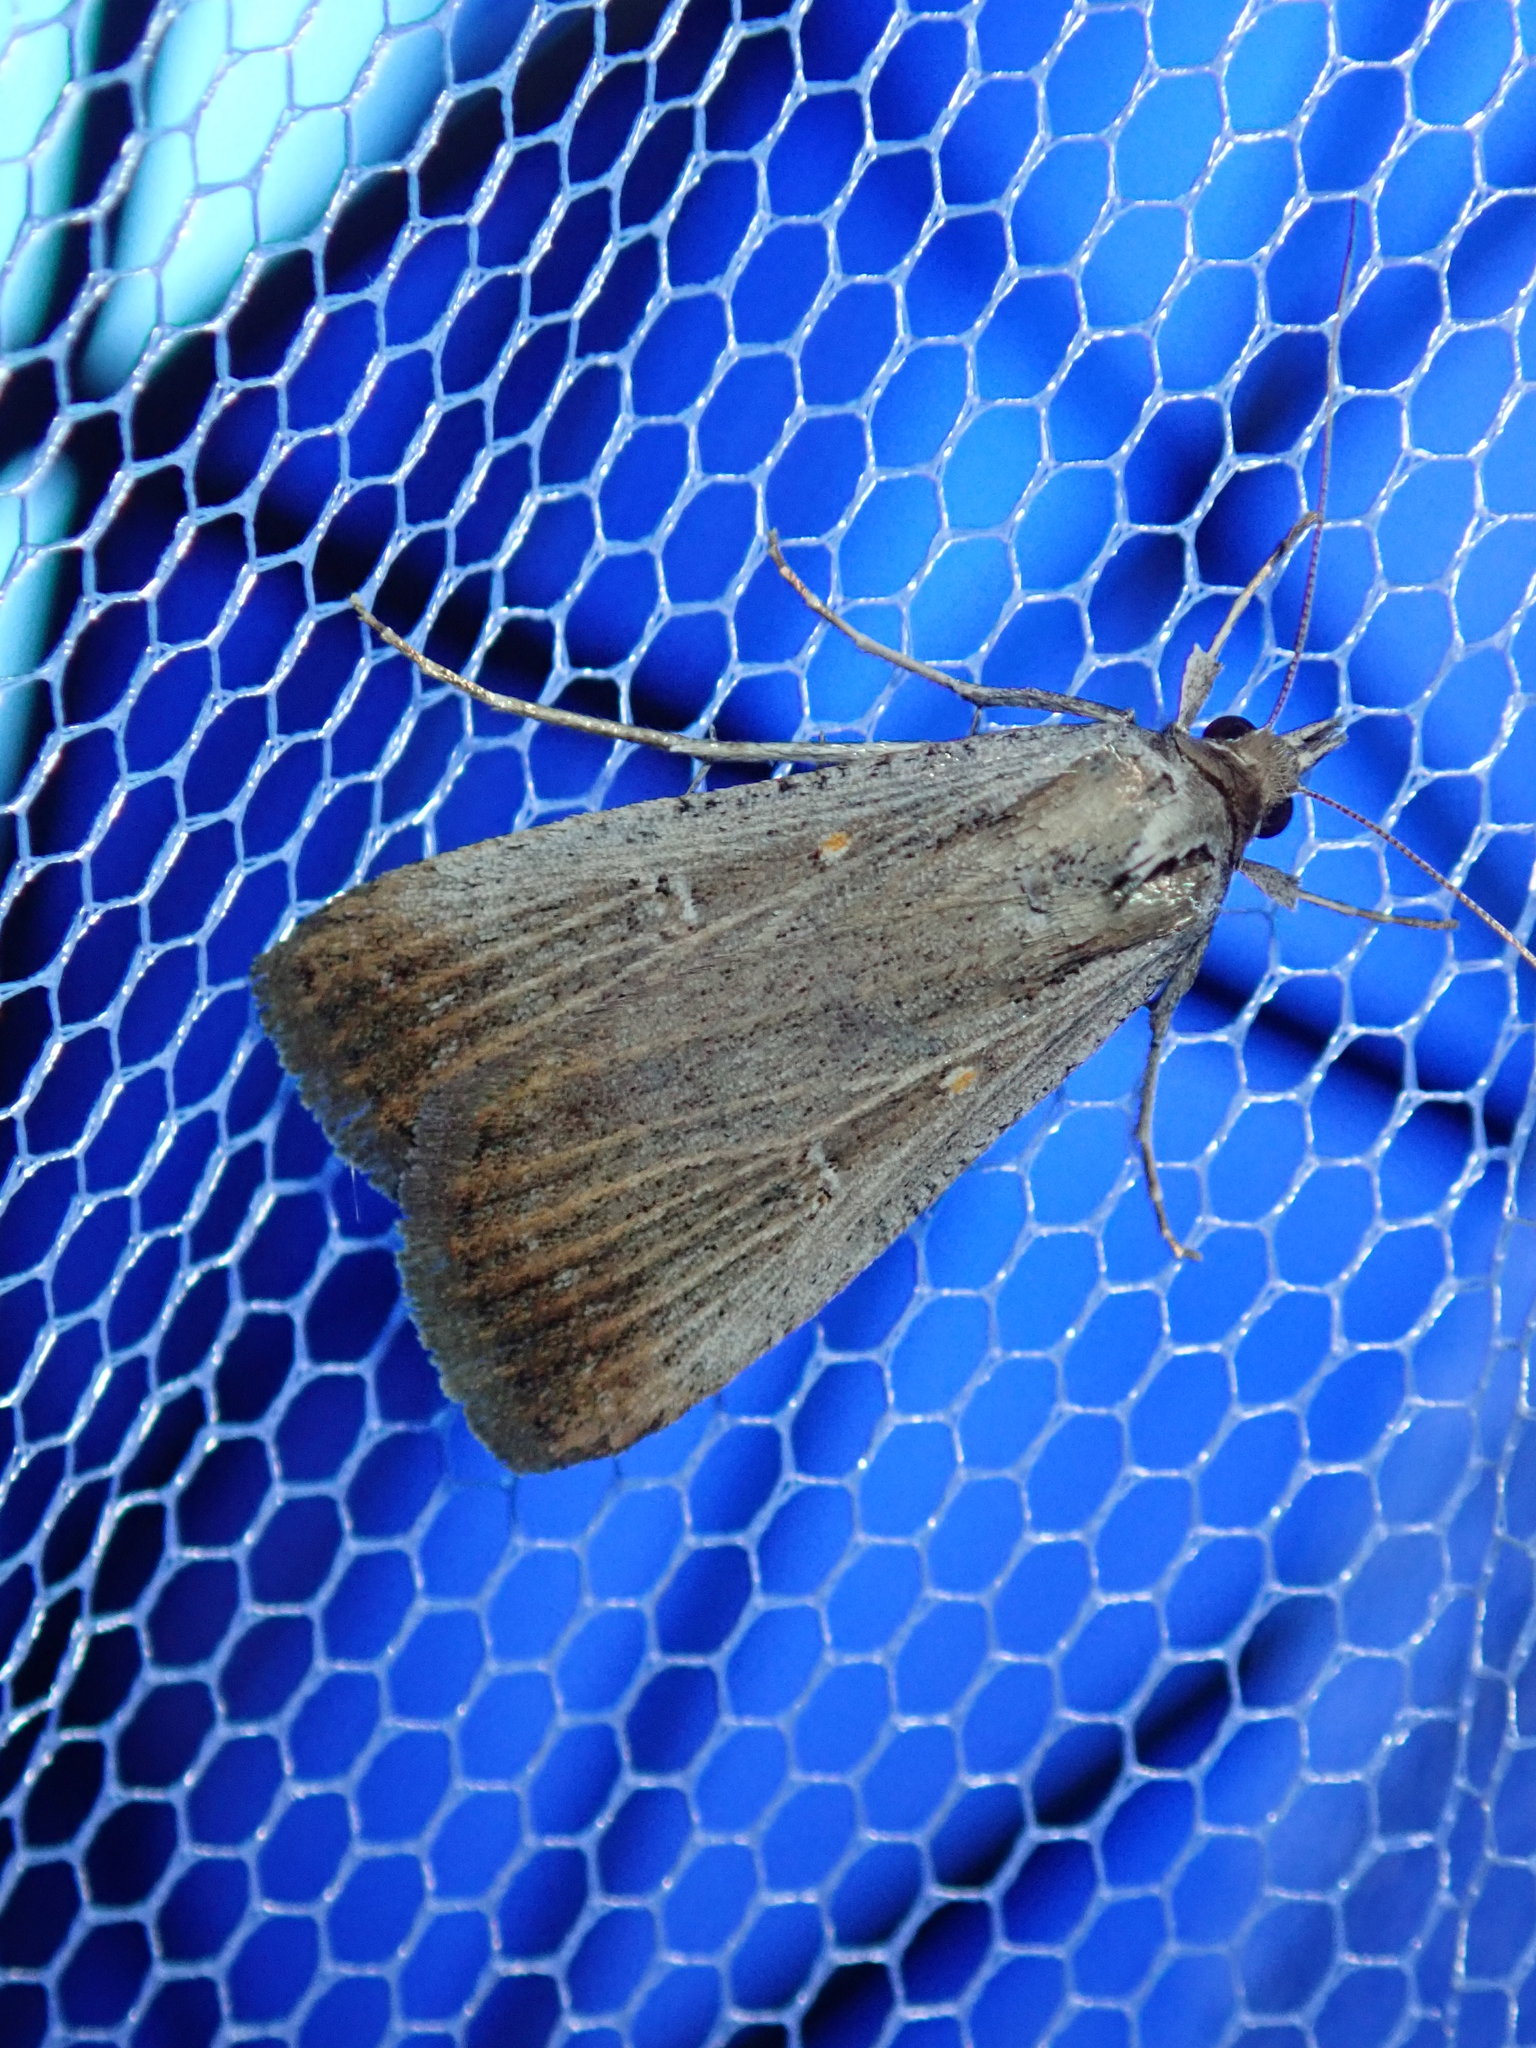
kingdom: Animalia
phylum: Arthropoda
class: Insecta
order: Lepidoptera
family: Noctuidae
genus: Tathorhynchus
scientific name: Tathorhynchus fallax
